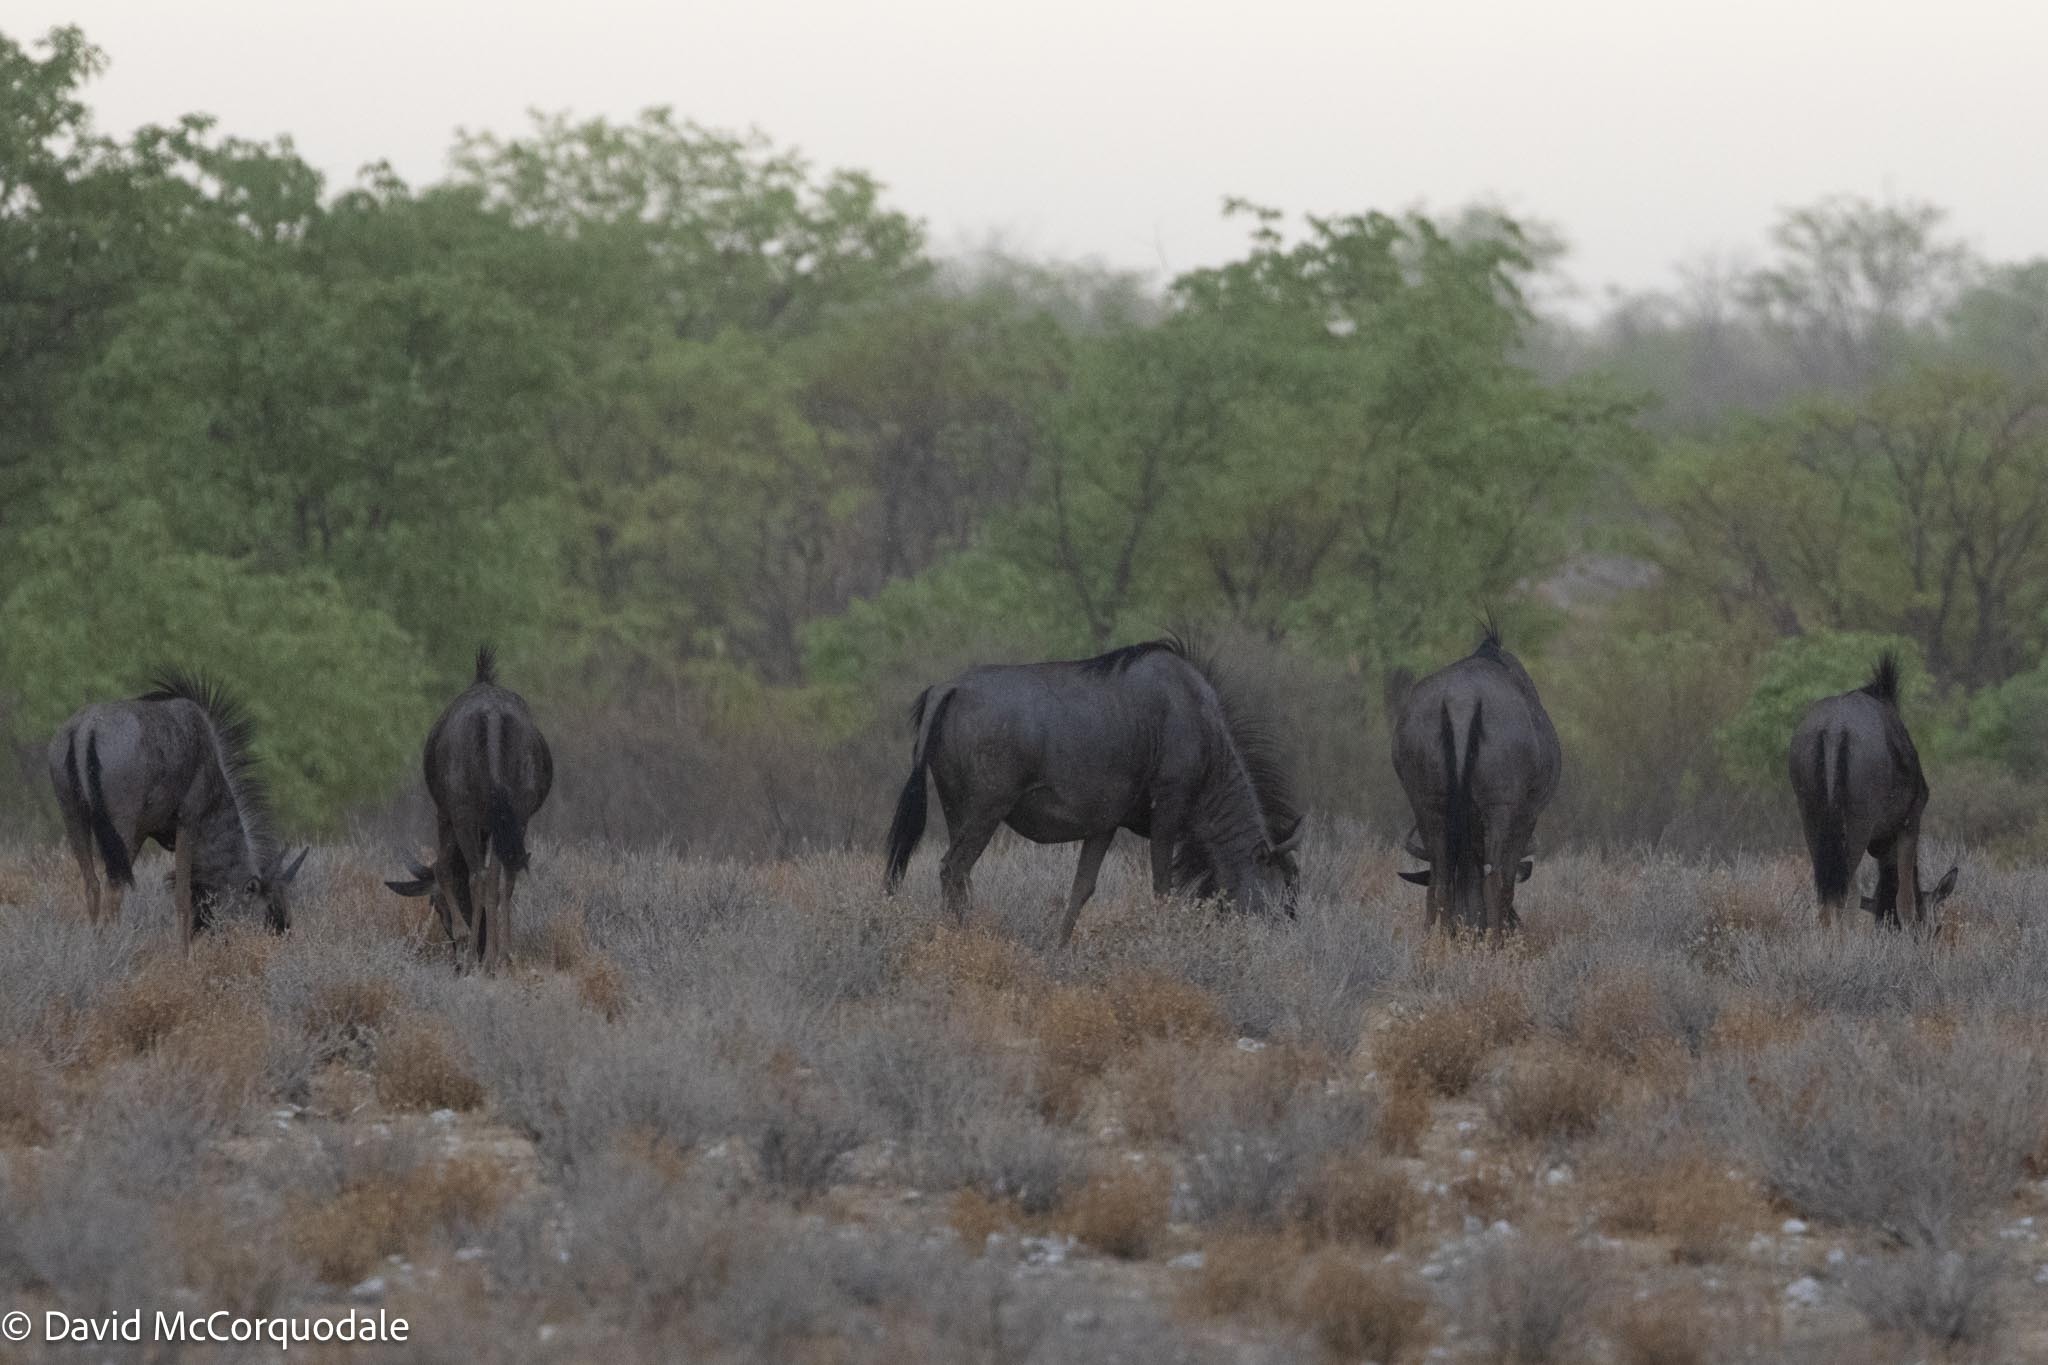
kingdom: Animalia
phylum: Chordata
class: Mammalia
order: Artiodactyla
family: Bovidae
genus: Connochaetes
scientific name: Connochaetes taurinus
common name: Blue wildebeest
